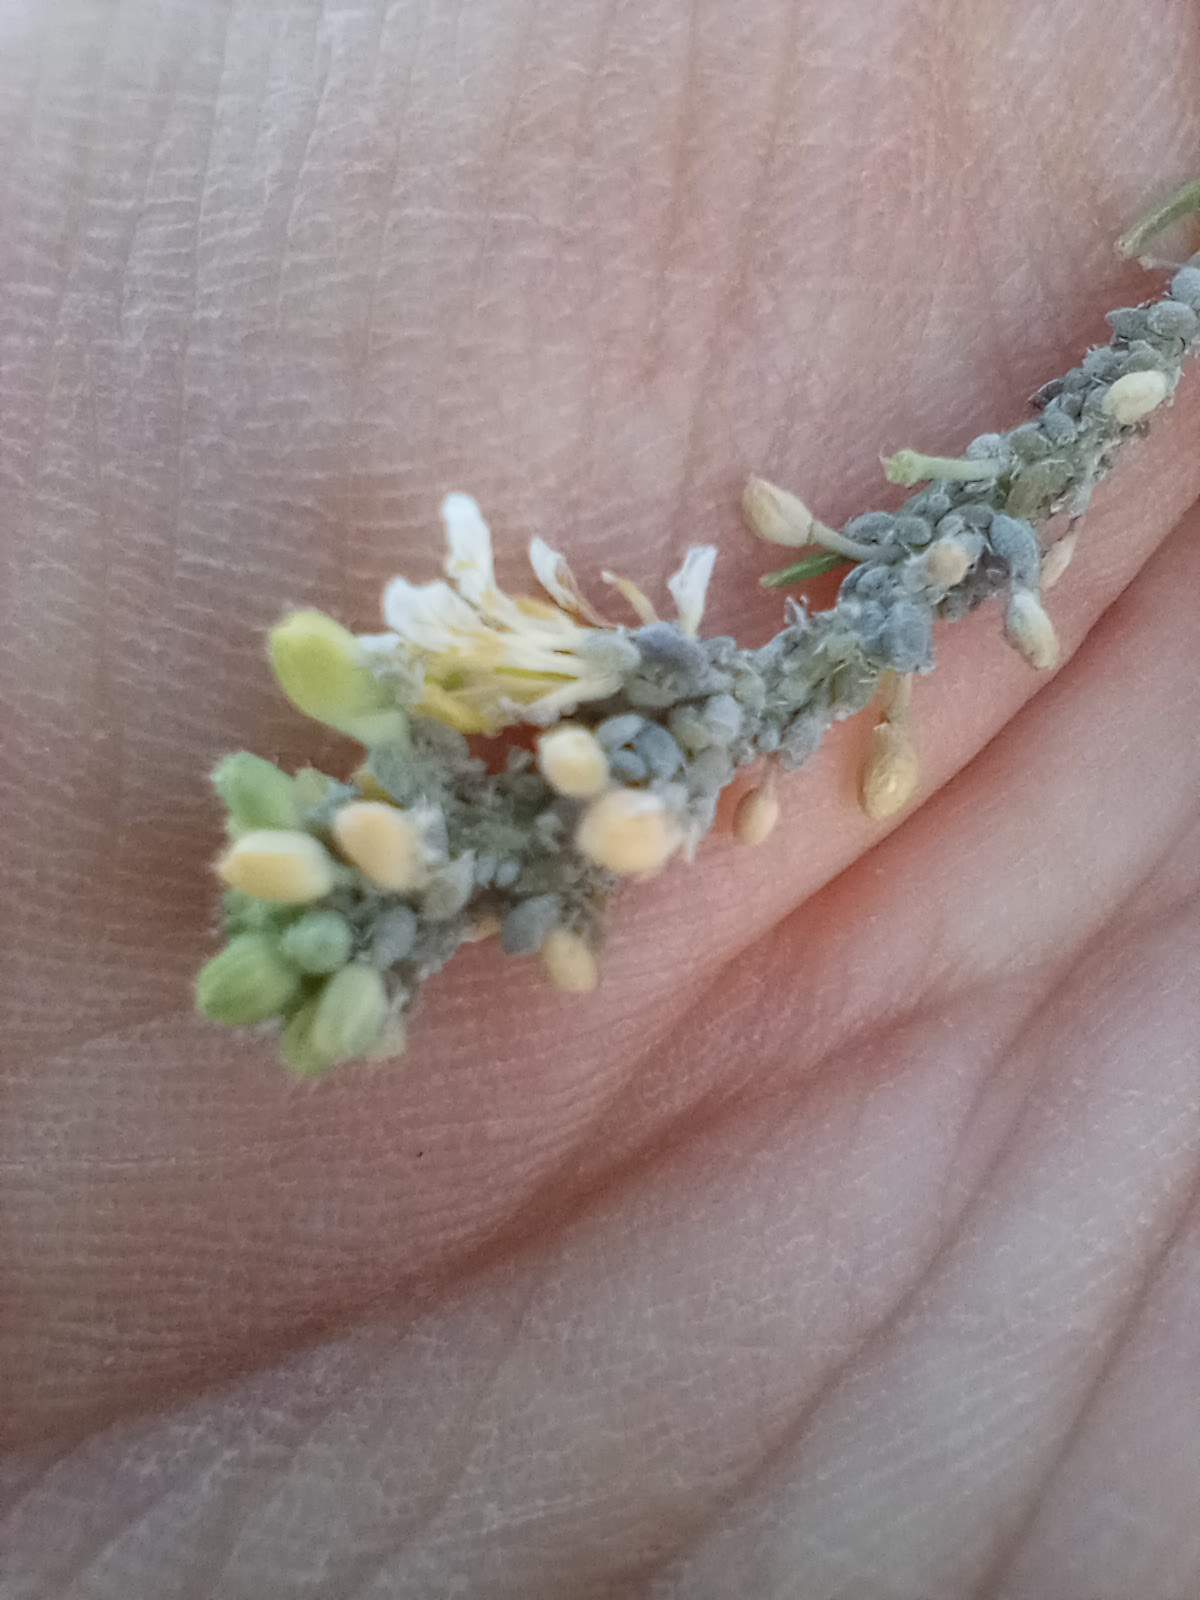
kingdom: Animalia
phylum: Arthropoda
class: Insecta
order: Hemiptera
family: Aphididae
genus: Brevicoryne
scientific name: Brevicoryne brassicae
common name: Cabbage aphid
